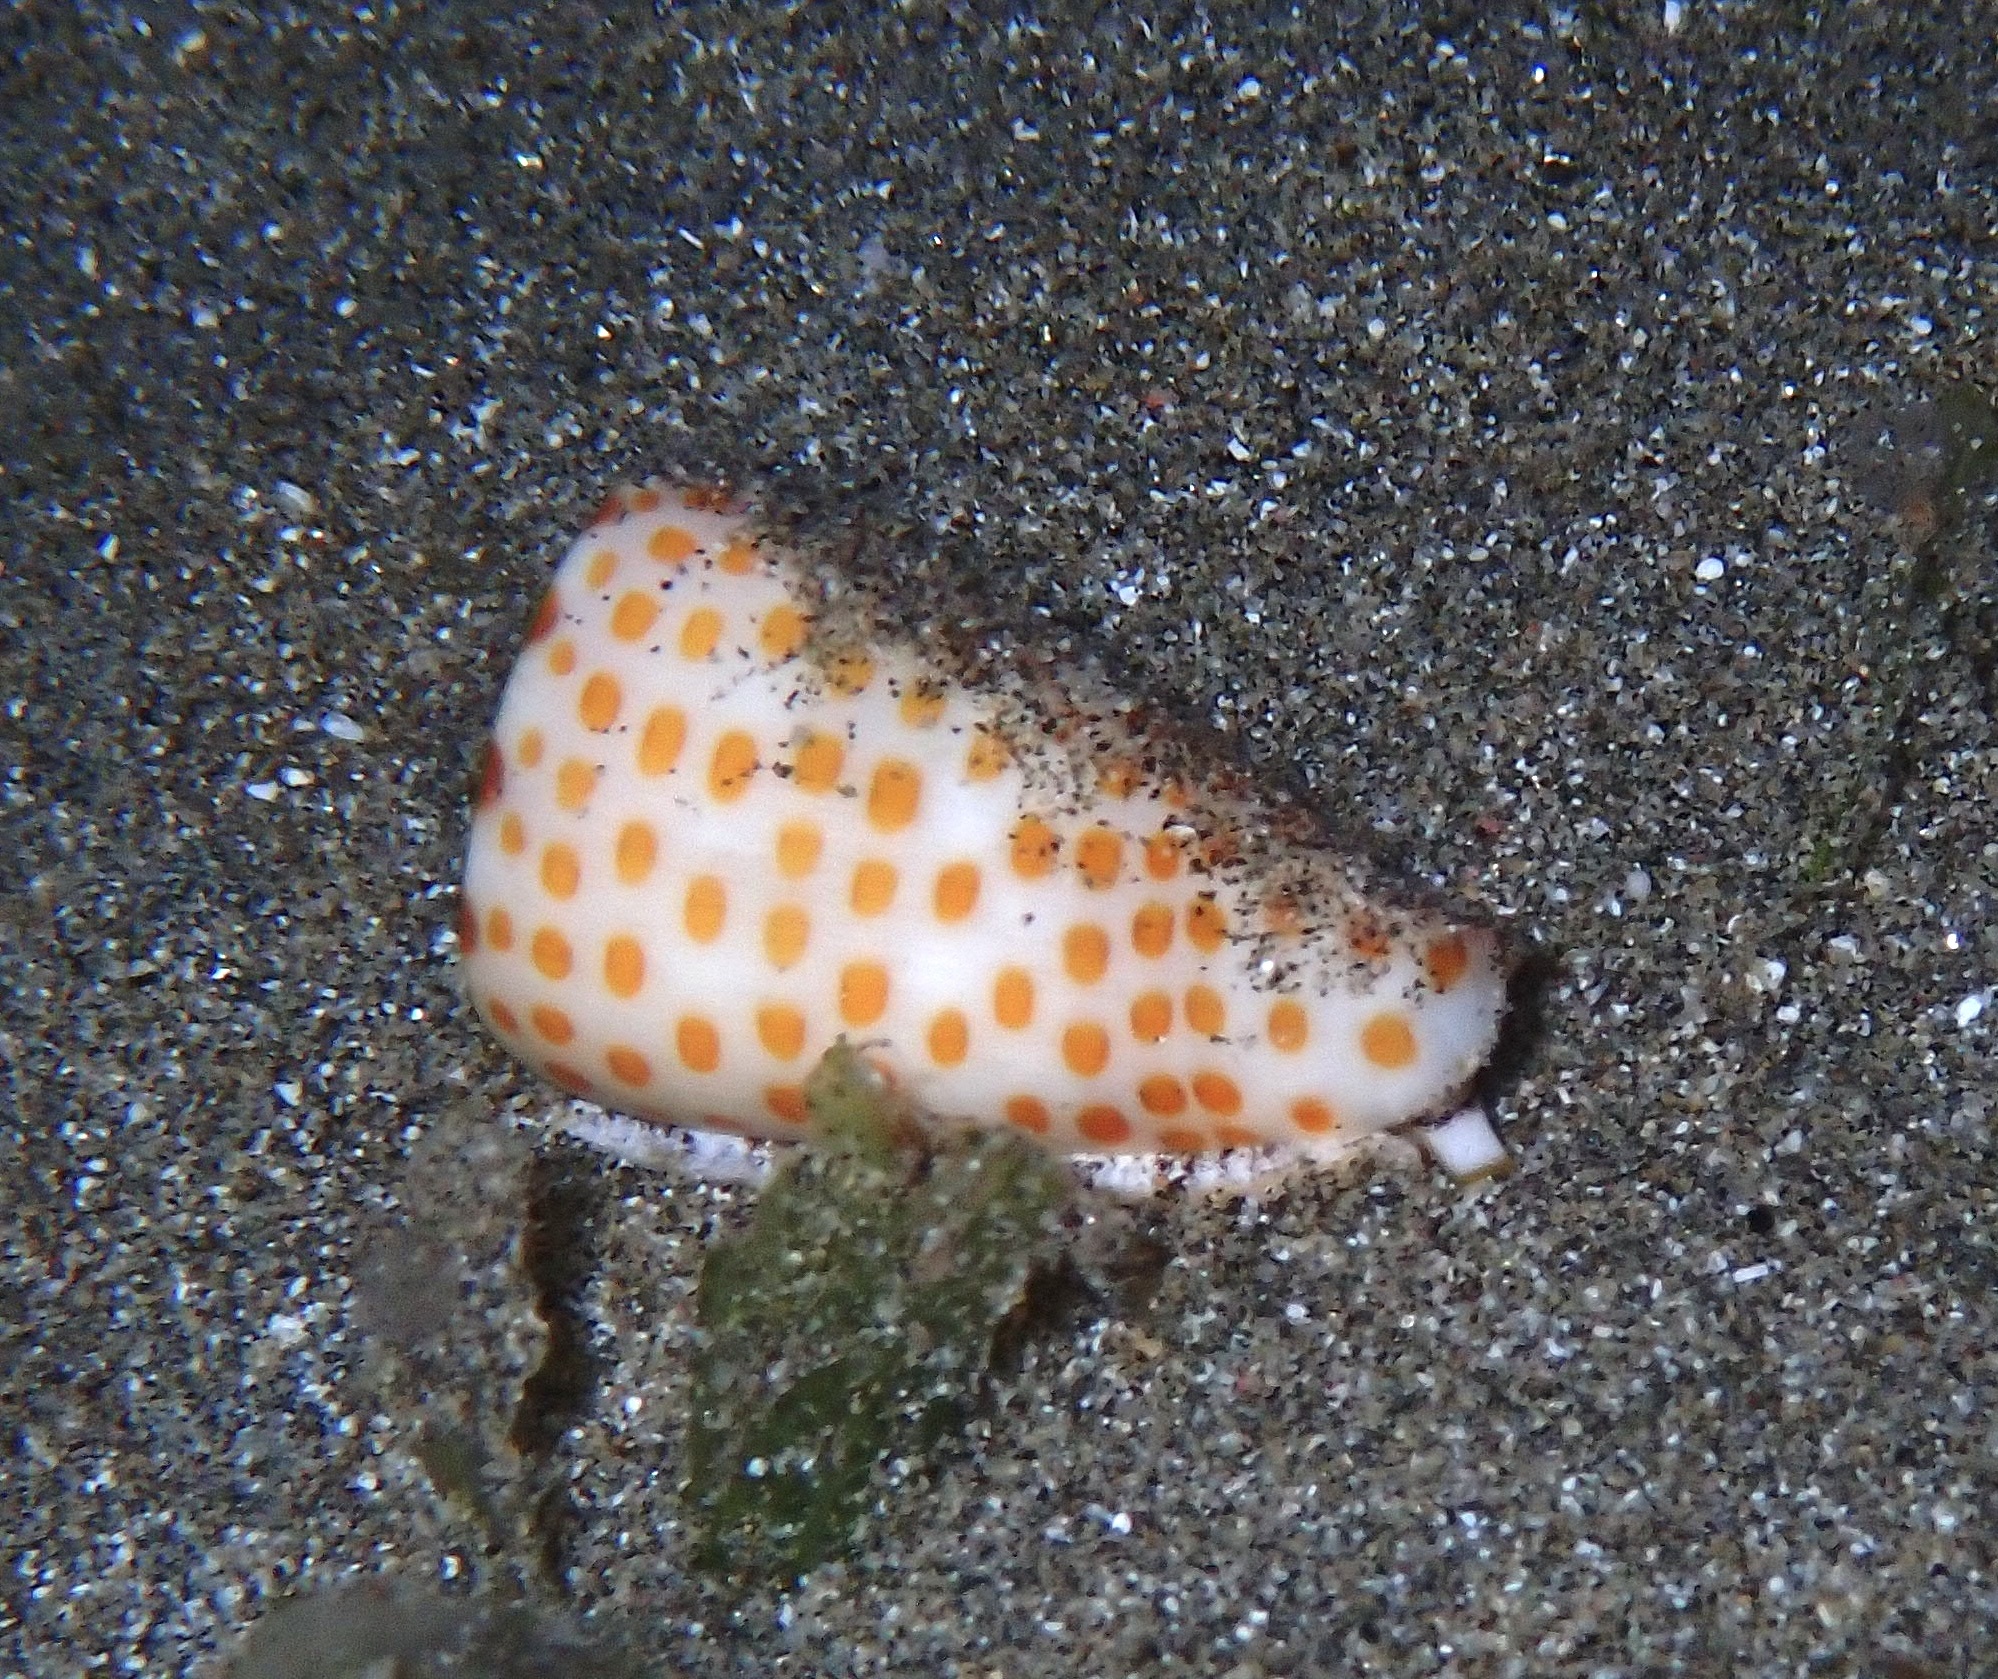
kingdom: Animalia
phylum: Mollusca
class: Gastropoda
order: Neogastropoda
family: Conidae
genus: Conus
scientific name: Conus tessulatus
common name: Tessellate cone
